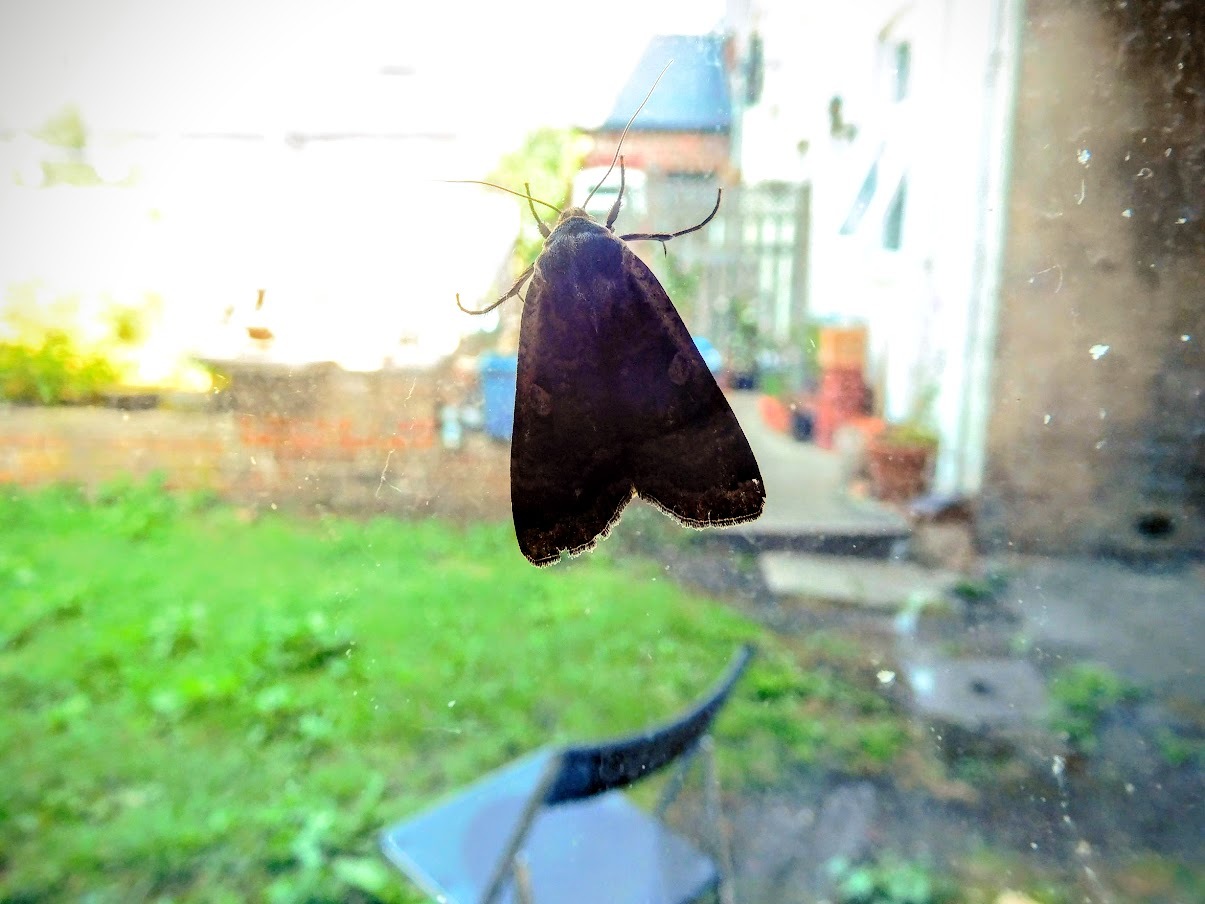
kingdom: Animalia
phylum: Arthropoda
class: Insecta
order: Lepidoptera
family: Noctuidae
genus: Noctua
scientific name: Noctua pronuba
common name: Large yellow underwing
